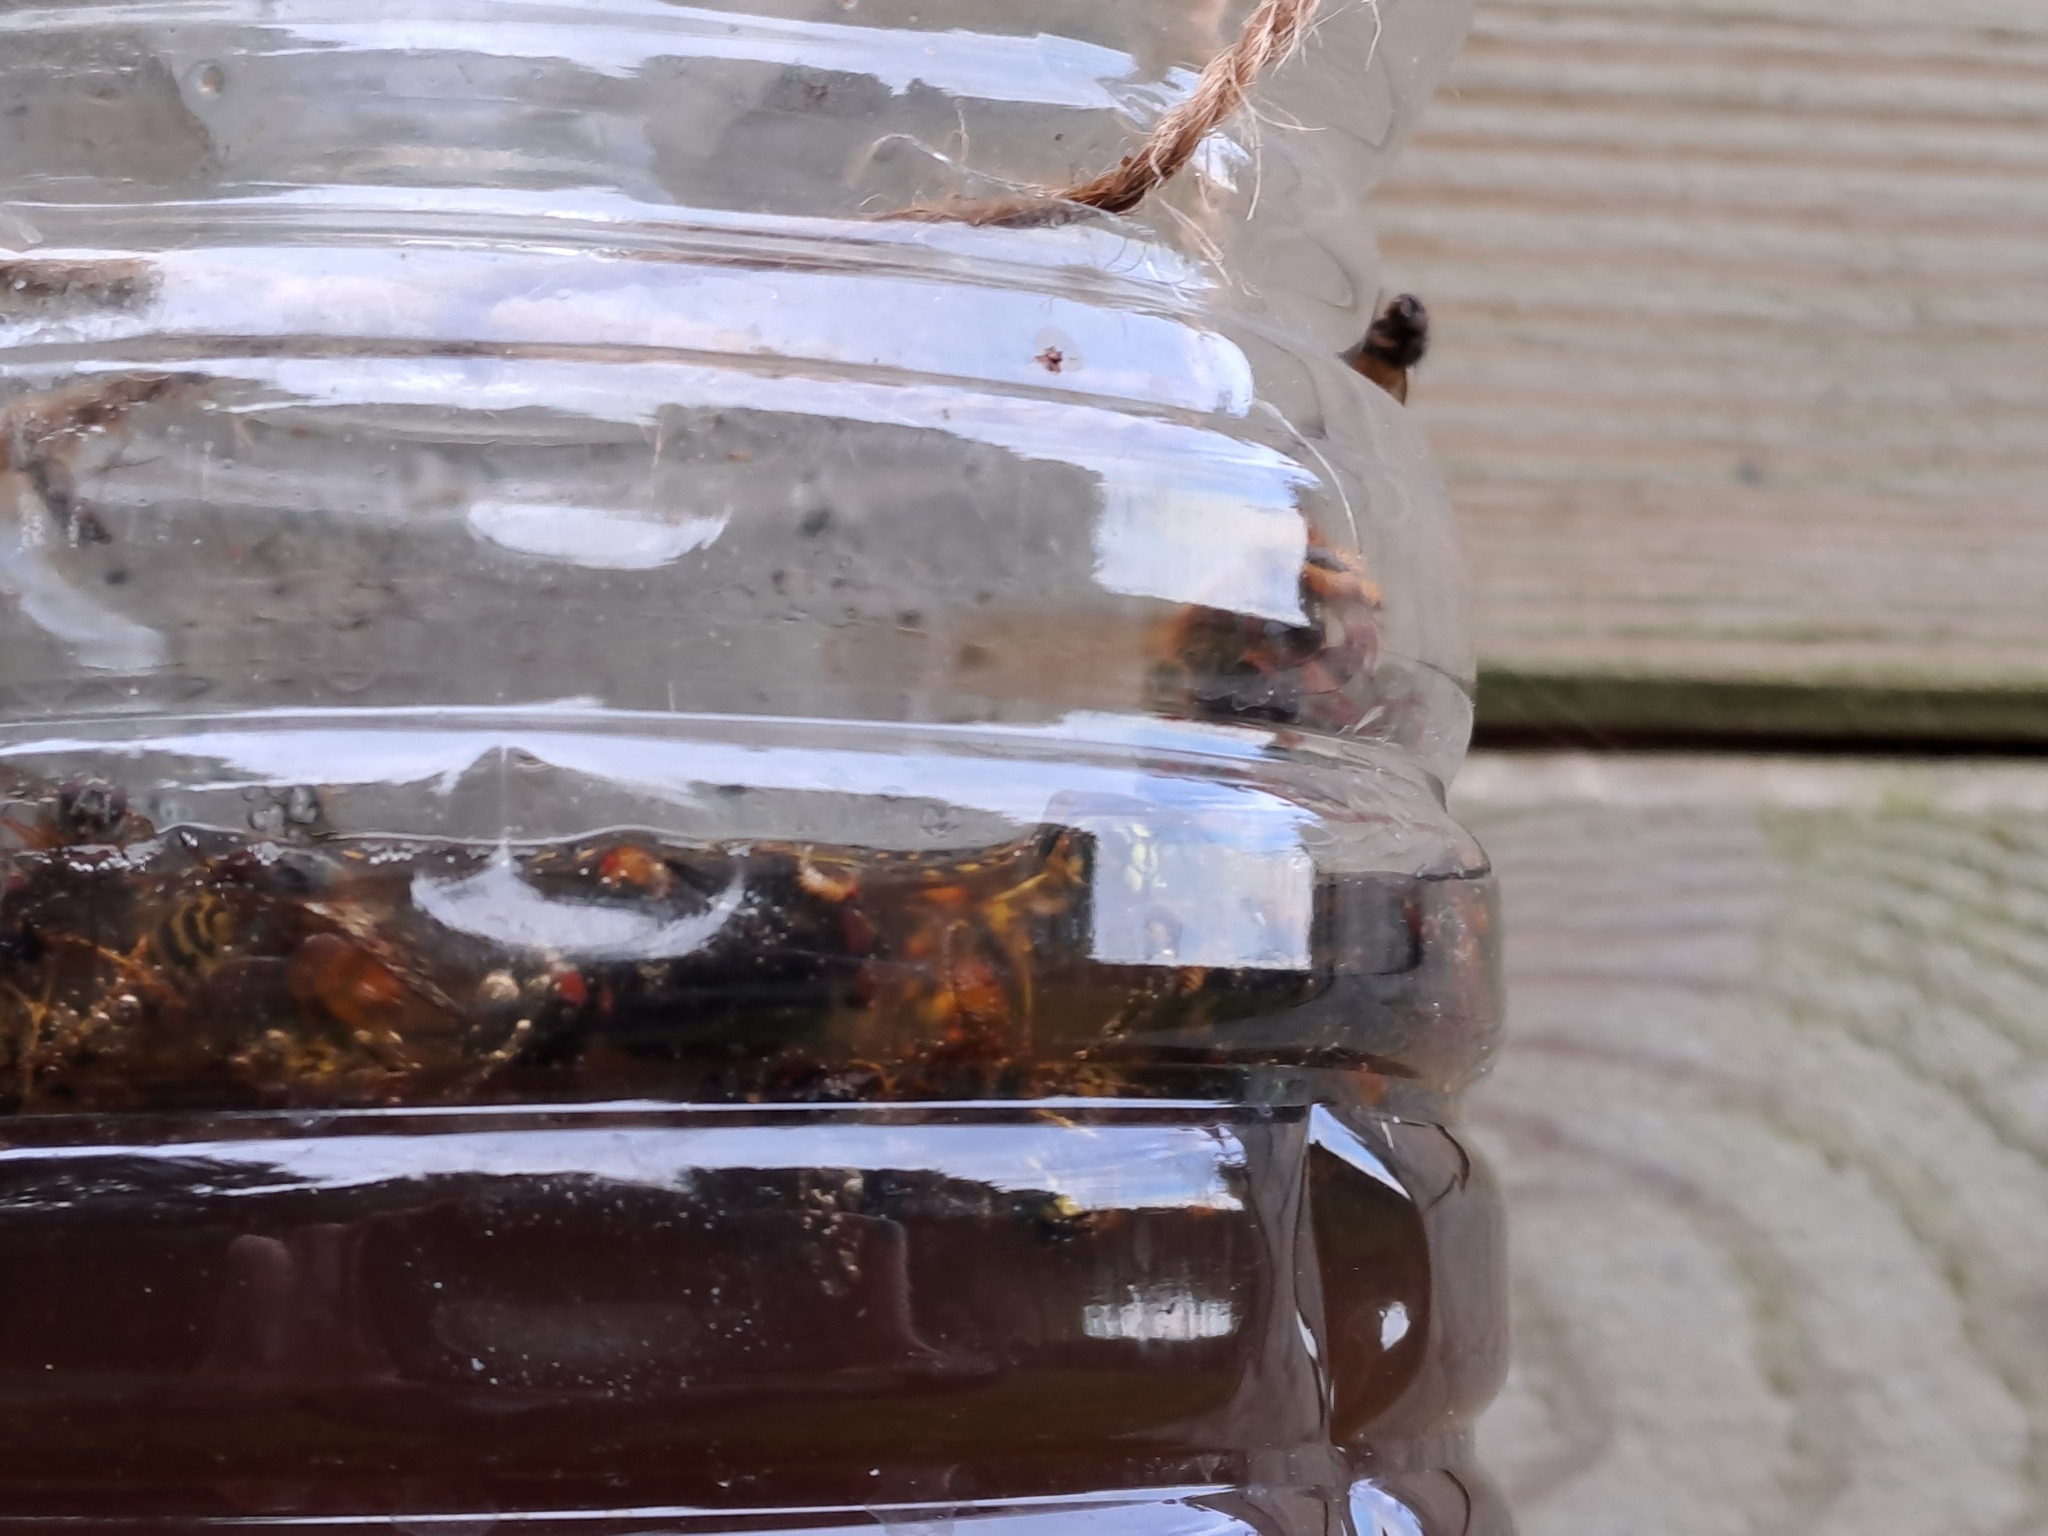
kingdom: Animalia
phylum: Arthropoda
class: Insecta
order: Hymenoptera
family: Vespidae
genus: Vespa
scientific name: Vespa crabro
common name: Hornet
